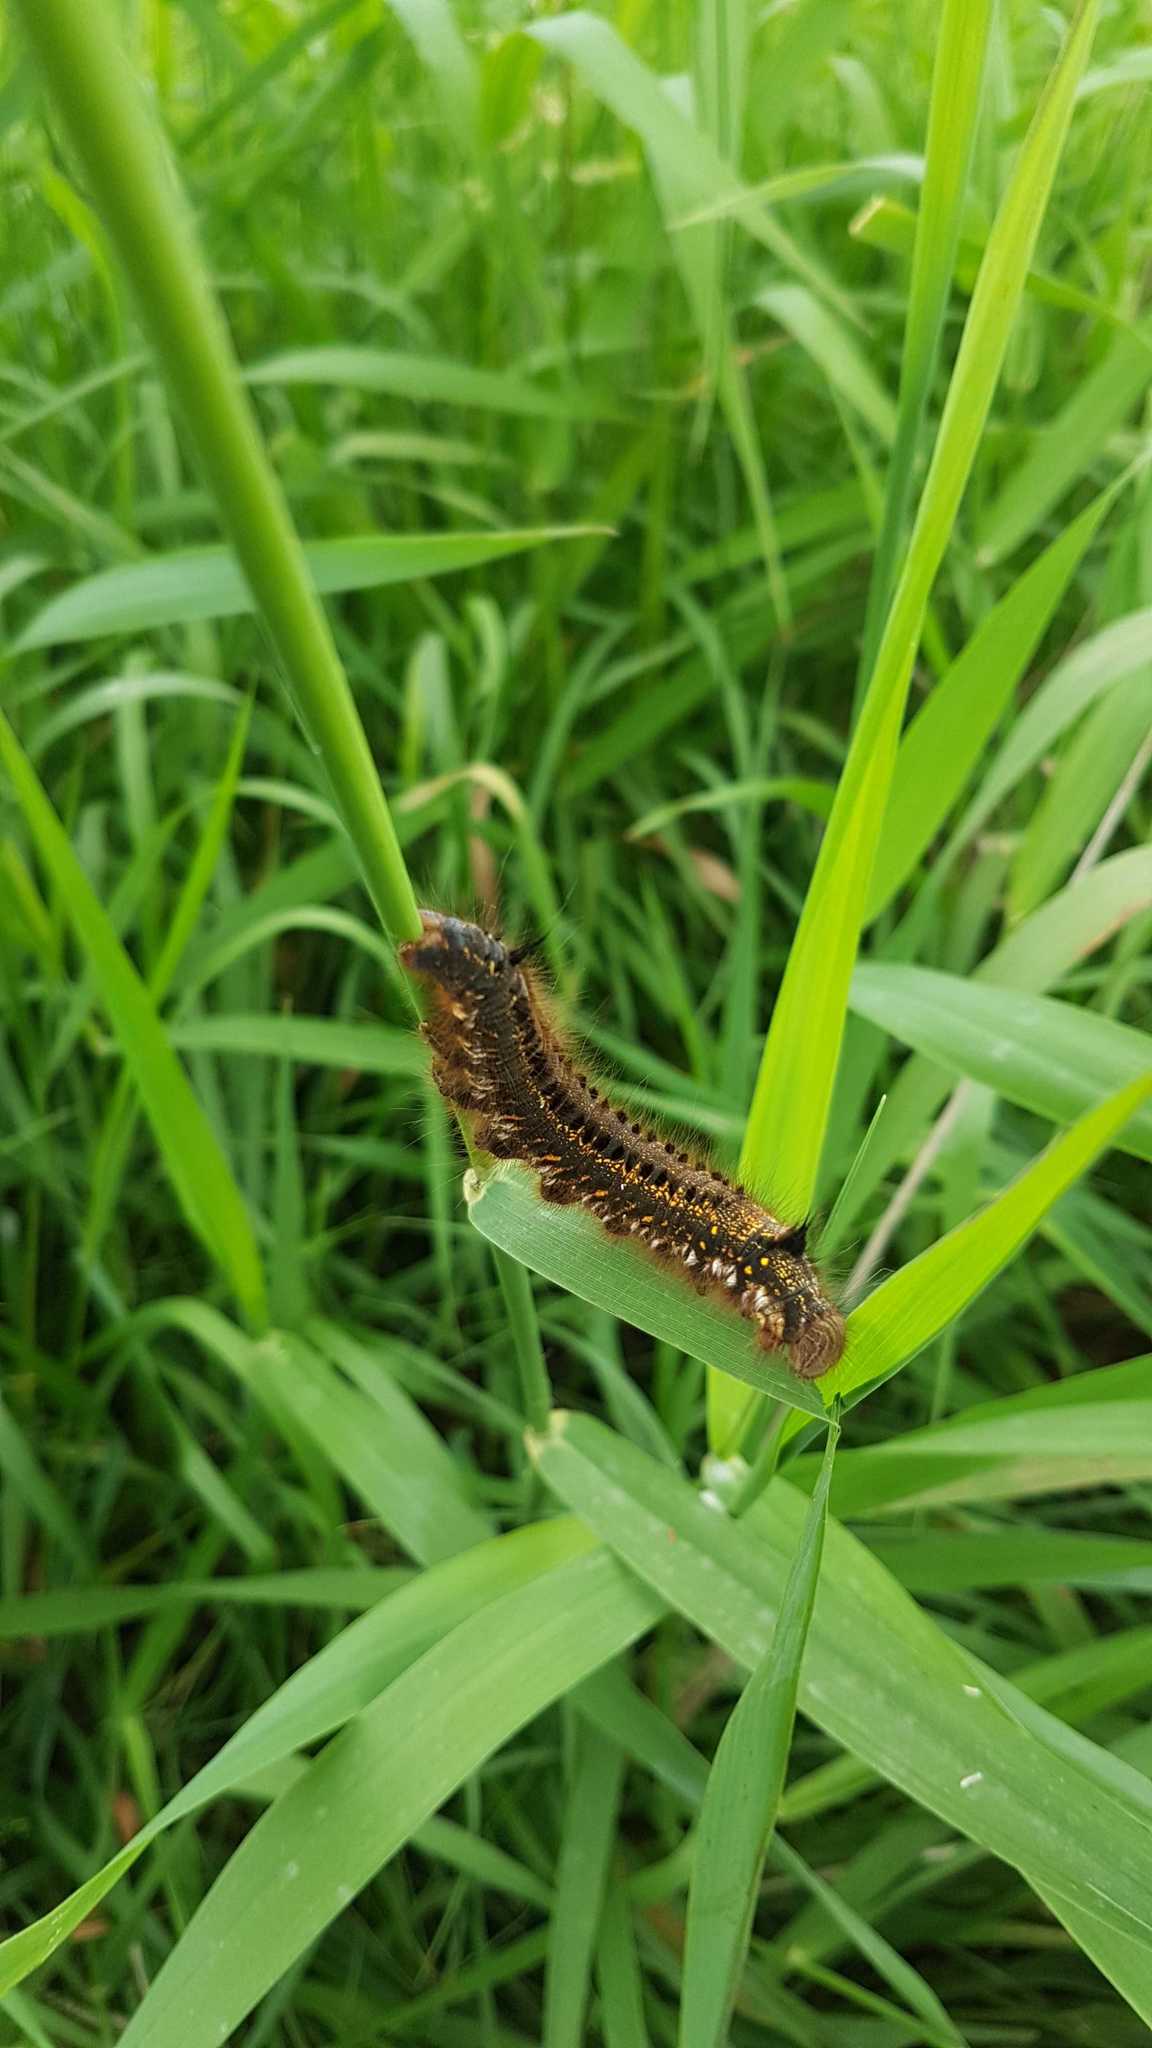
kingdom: Animalia
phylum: Arthropoda
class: Insecta
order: Lepidoptera
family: Lasiocampidae
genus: Euthrix
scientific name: Euthrix potatoria
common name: Drinker
